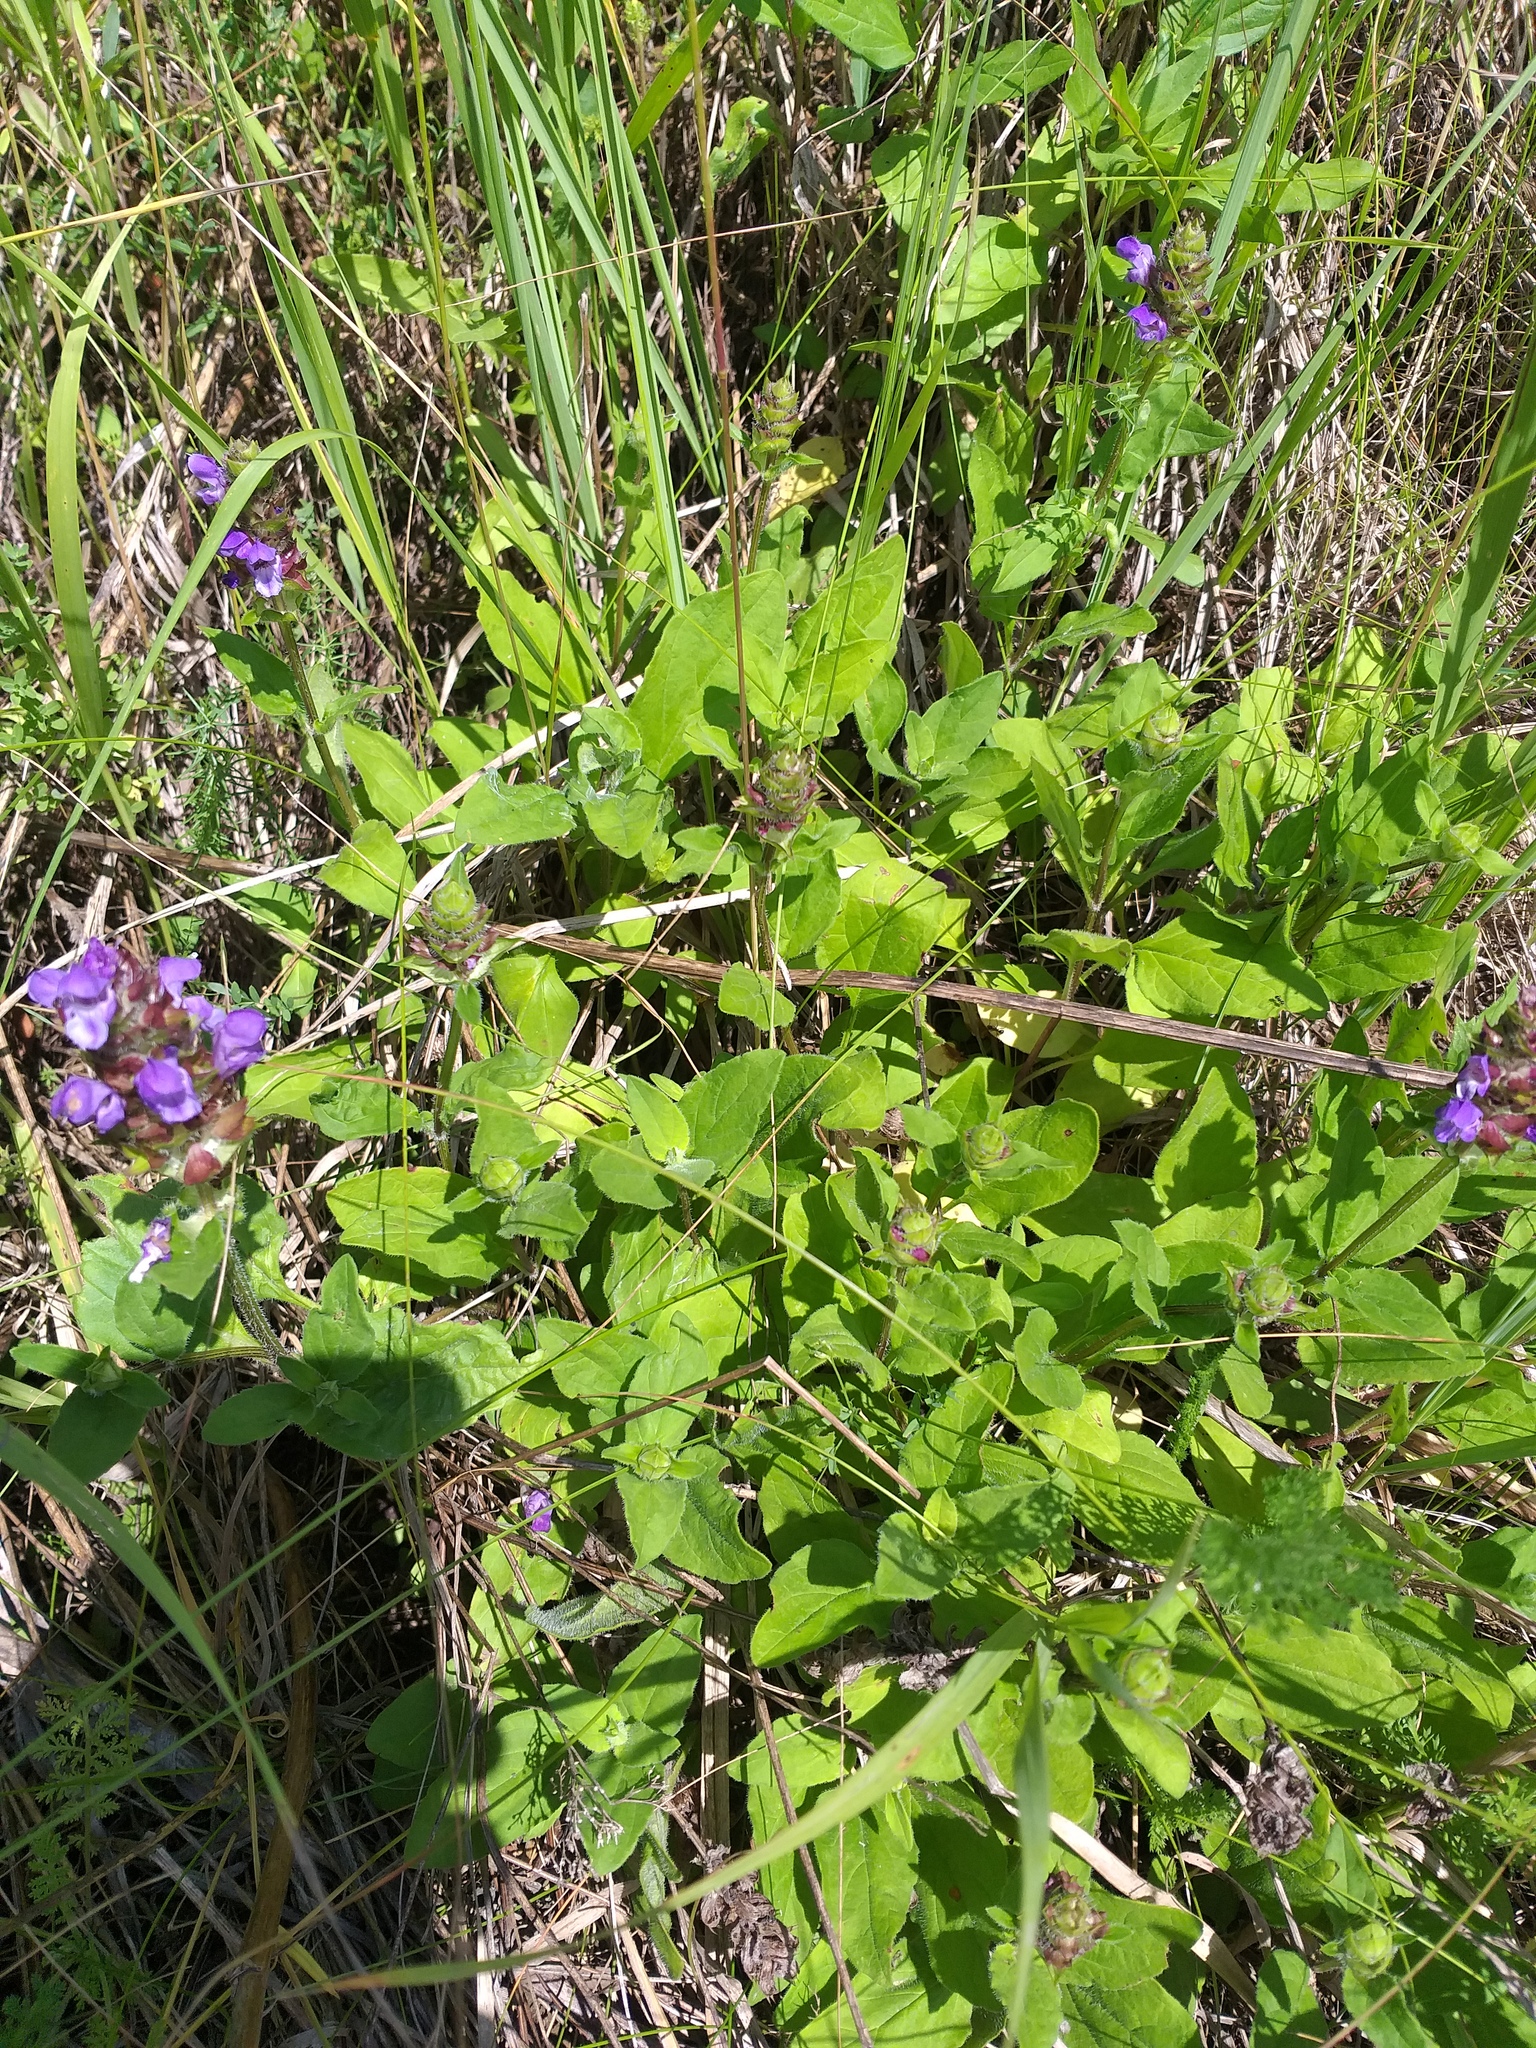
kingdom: Plantae
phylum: Tracheophyta
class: Magnoliopsida
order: Lamiales
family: Lamiaceae
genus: Prunella
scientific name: Prunella grandiflora
